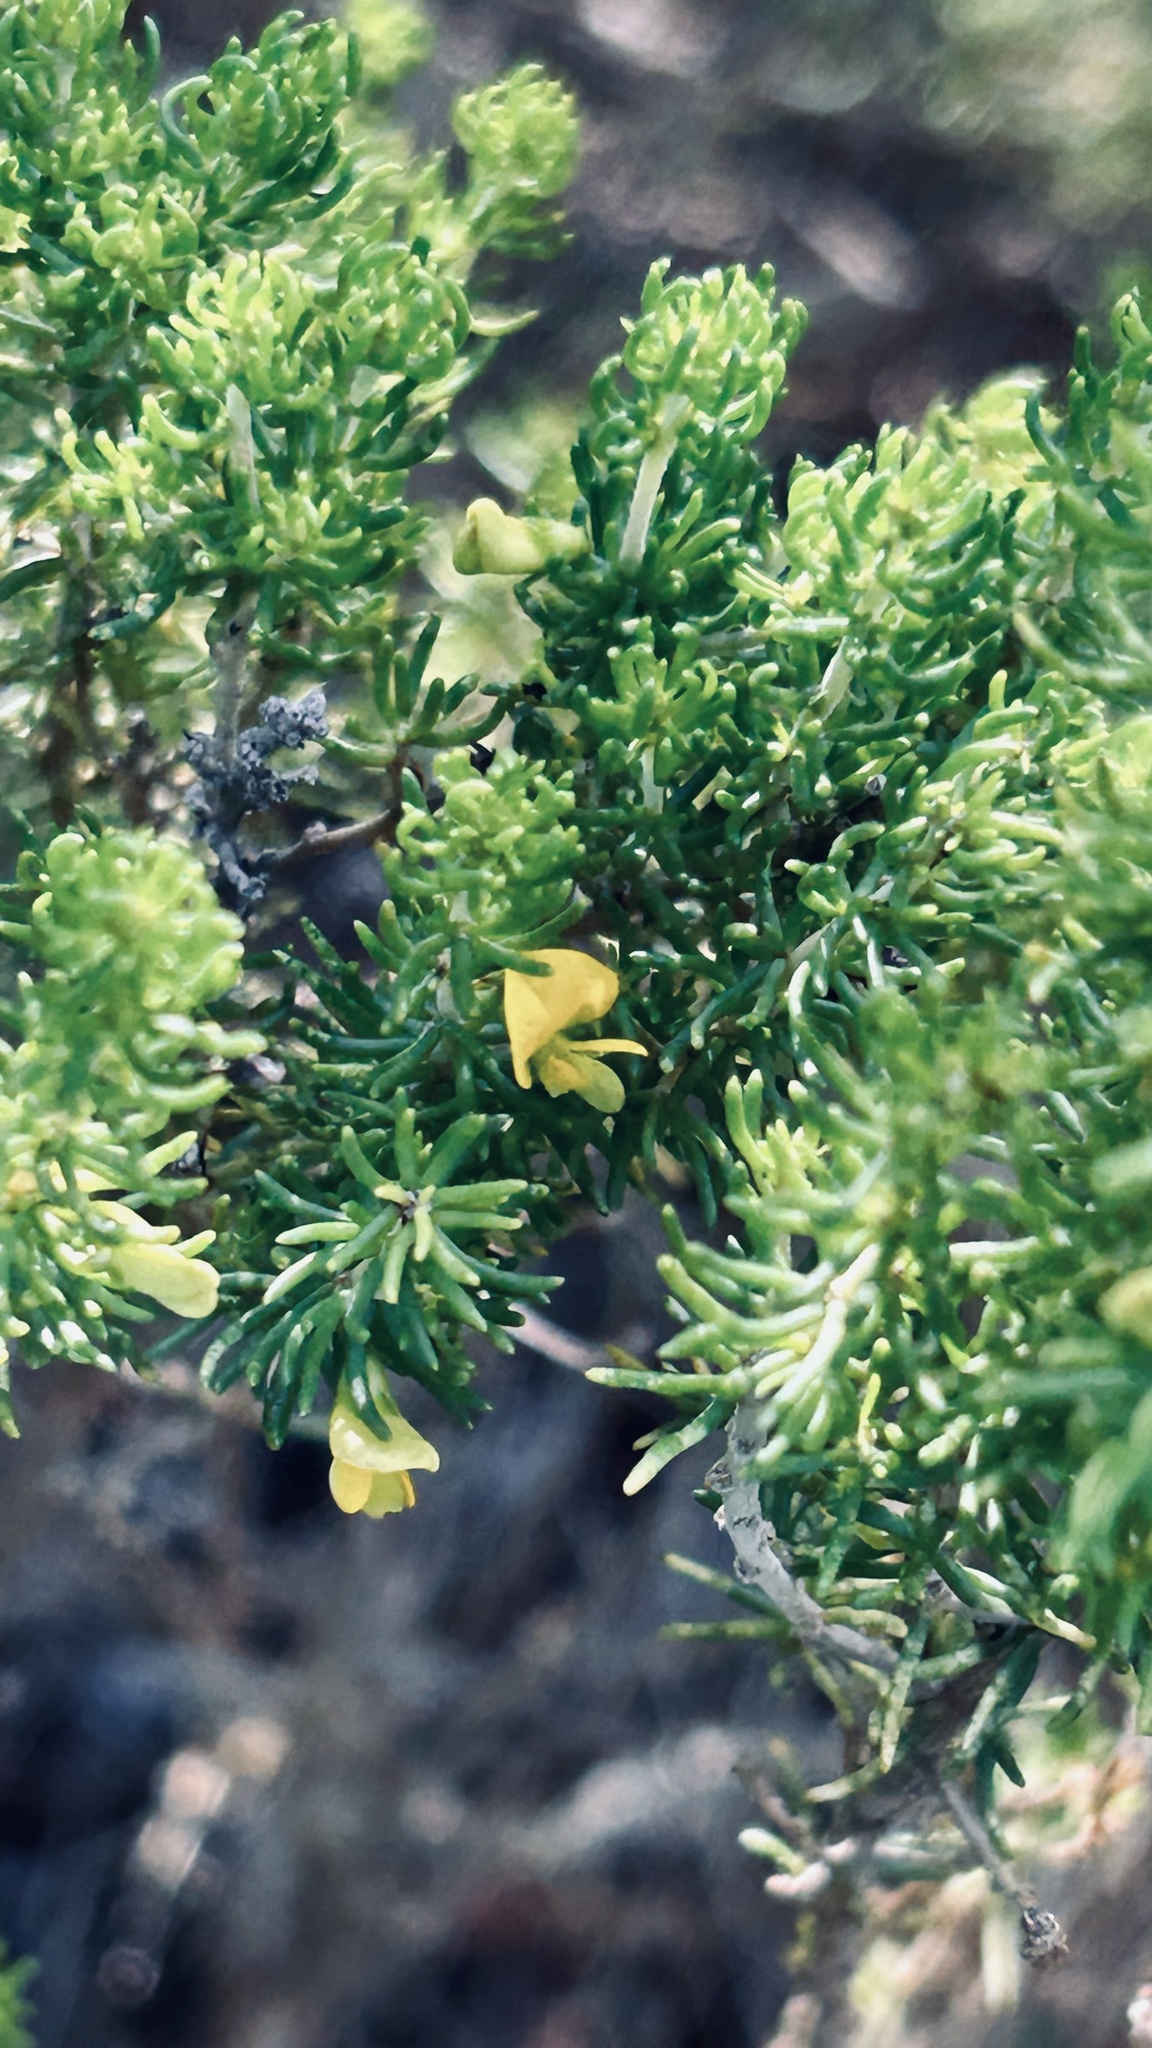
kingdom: Plantae
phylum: Tracheophyta
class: Magnoliopsida
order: Fabales
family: Fabaceae
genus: Aspalathus
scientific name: Aspalathus sanguinea
